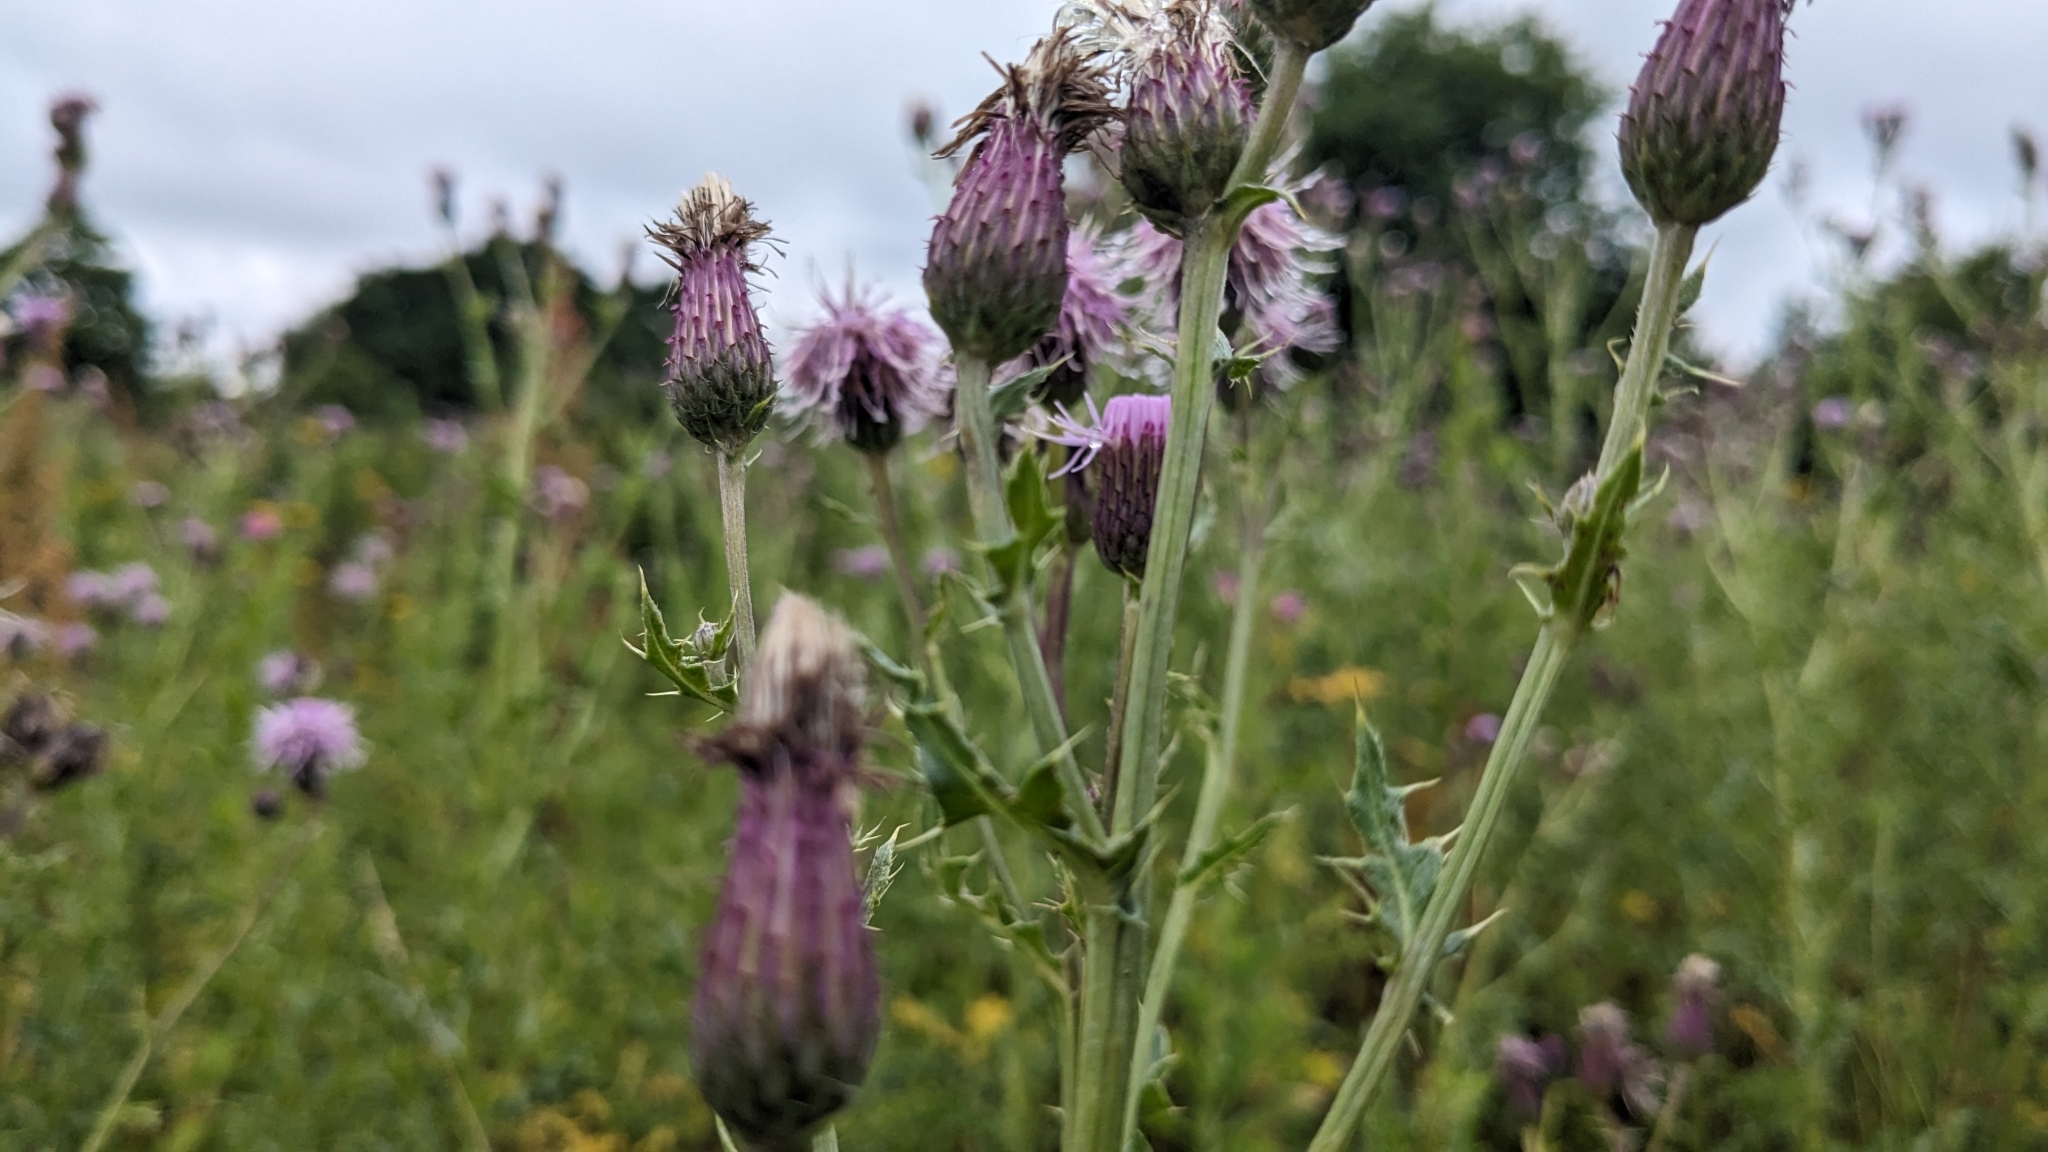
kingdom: Plantae
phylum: Tracheophyta
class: Magnoliopsida
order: Asterales
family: Asteraceae
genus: Cirsium
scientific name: Cirsium arvense
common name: Creeping thistle
